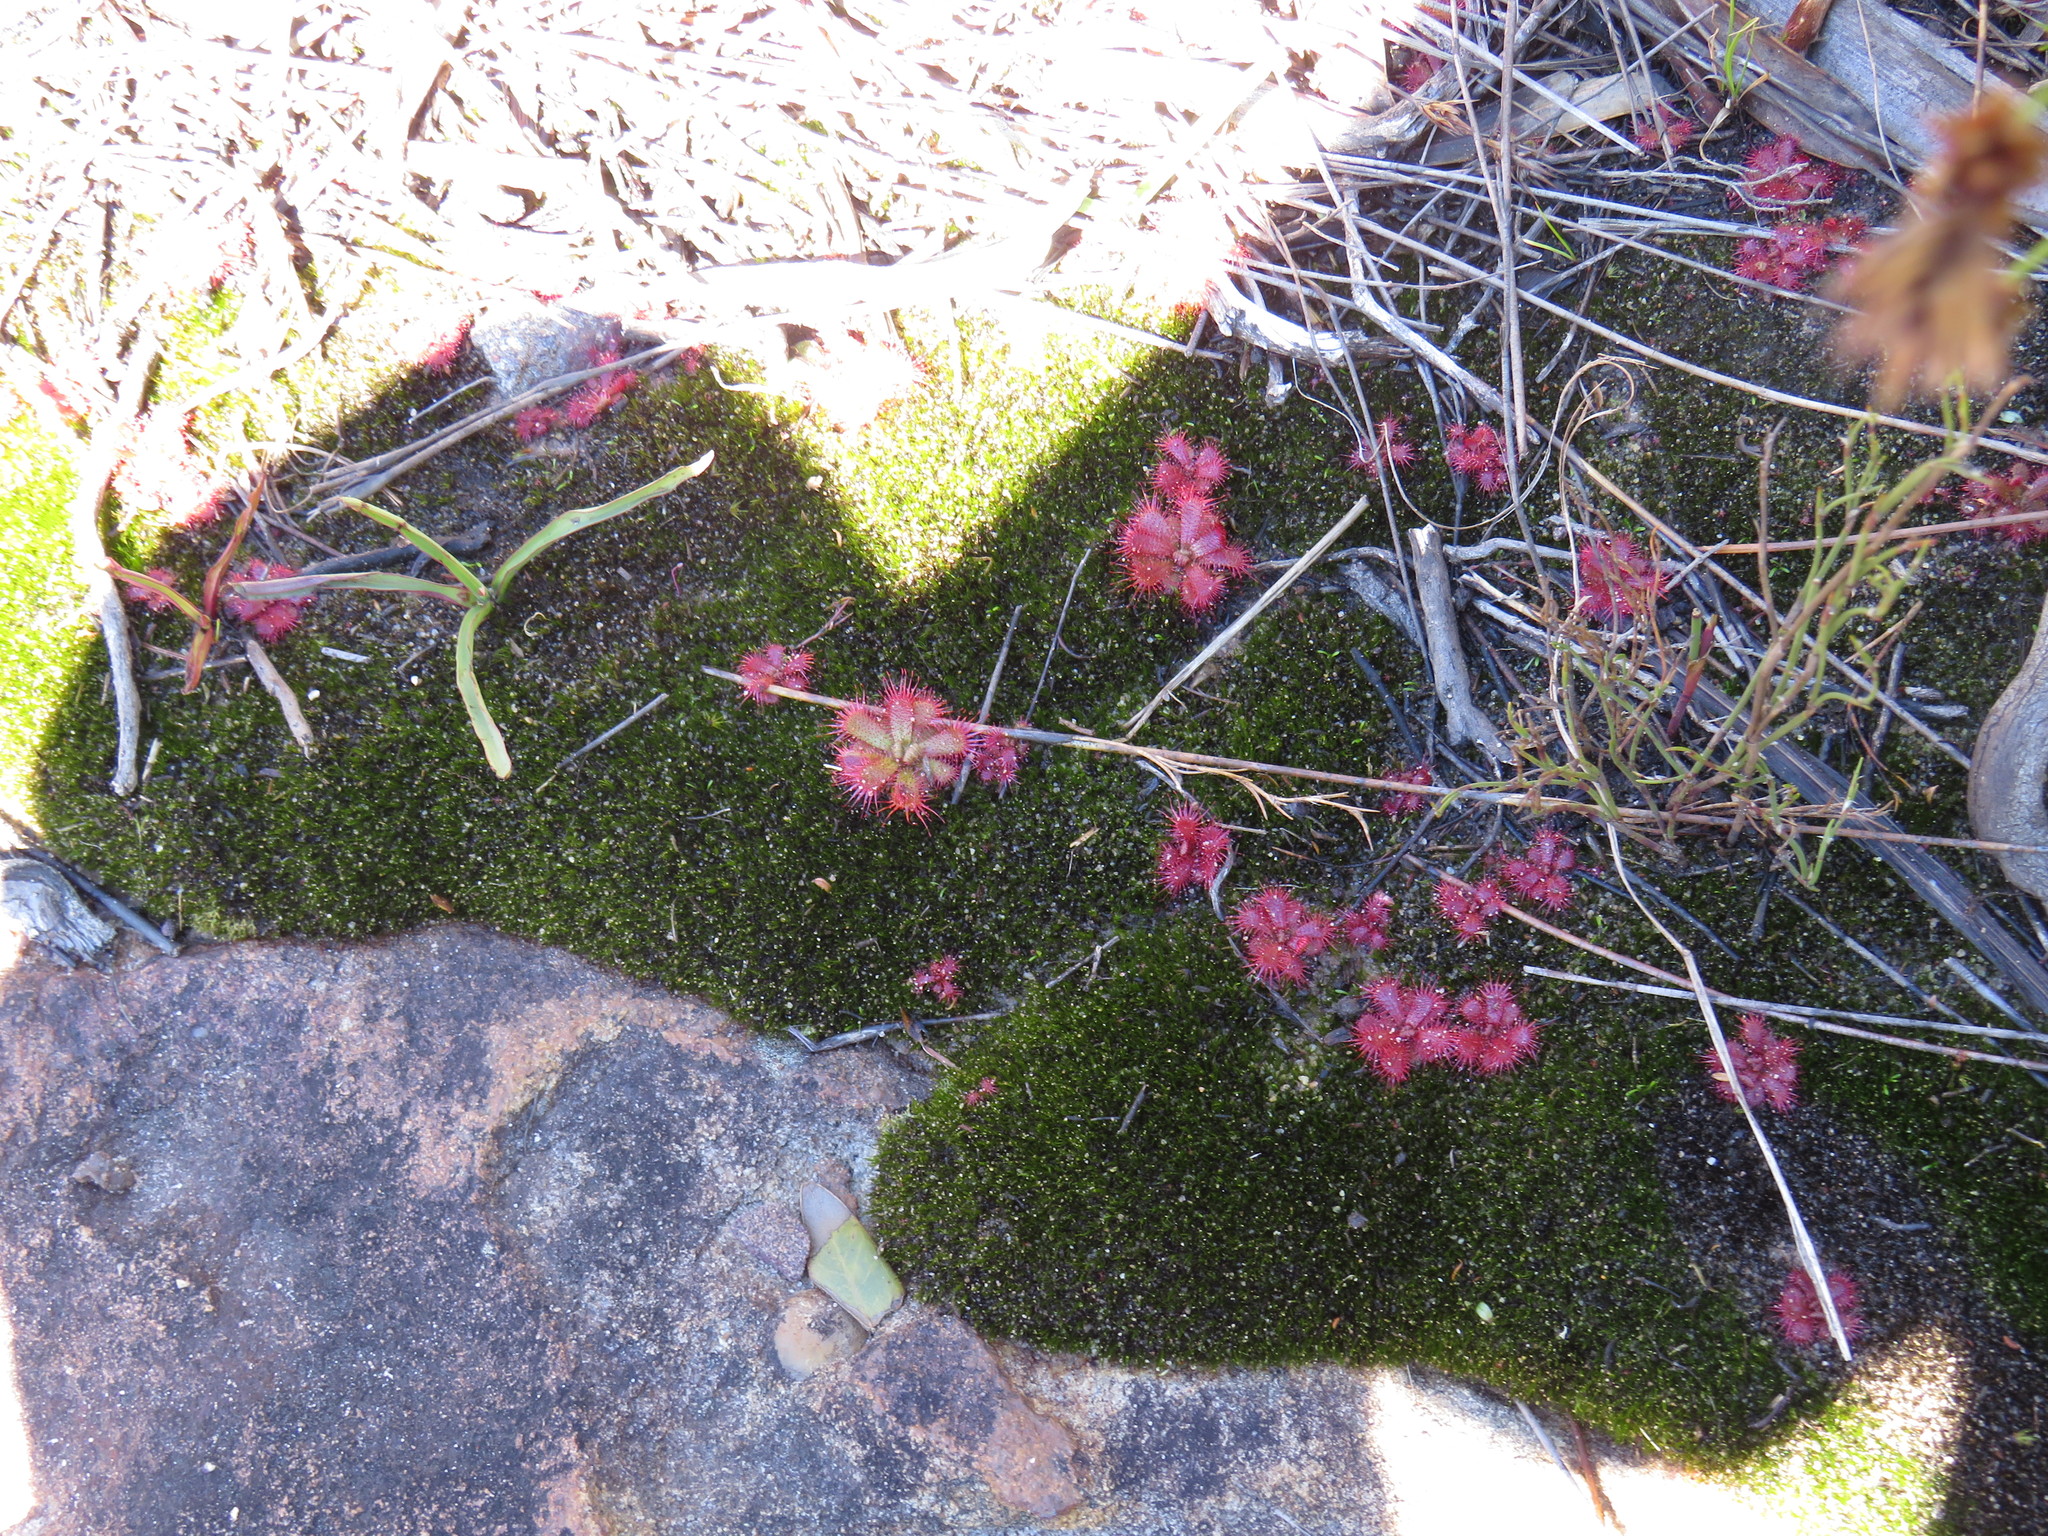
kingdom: Plantae
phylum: Tracheophyta
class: Magnoliopsida
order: Caryophyllales
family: Droseraceae
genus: Drosera
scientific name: Drosera trinervia
